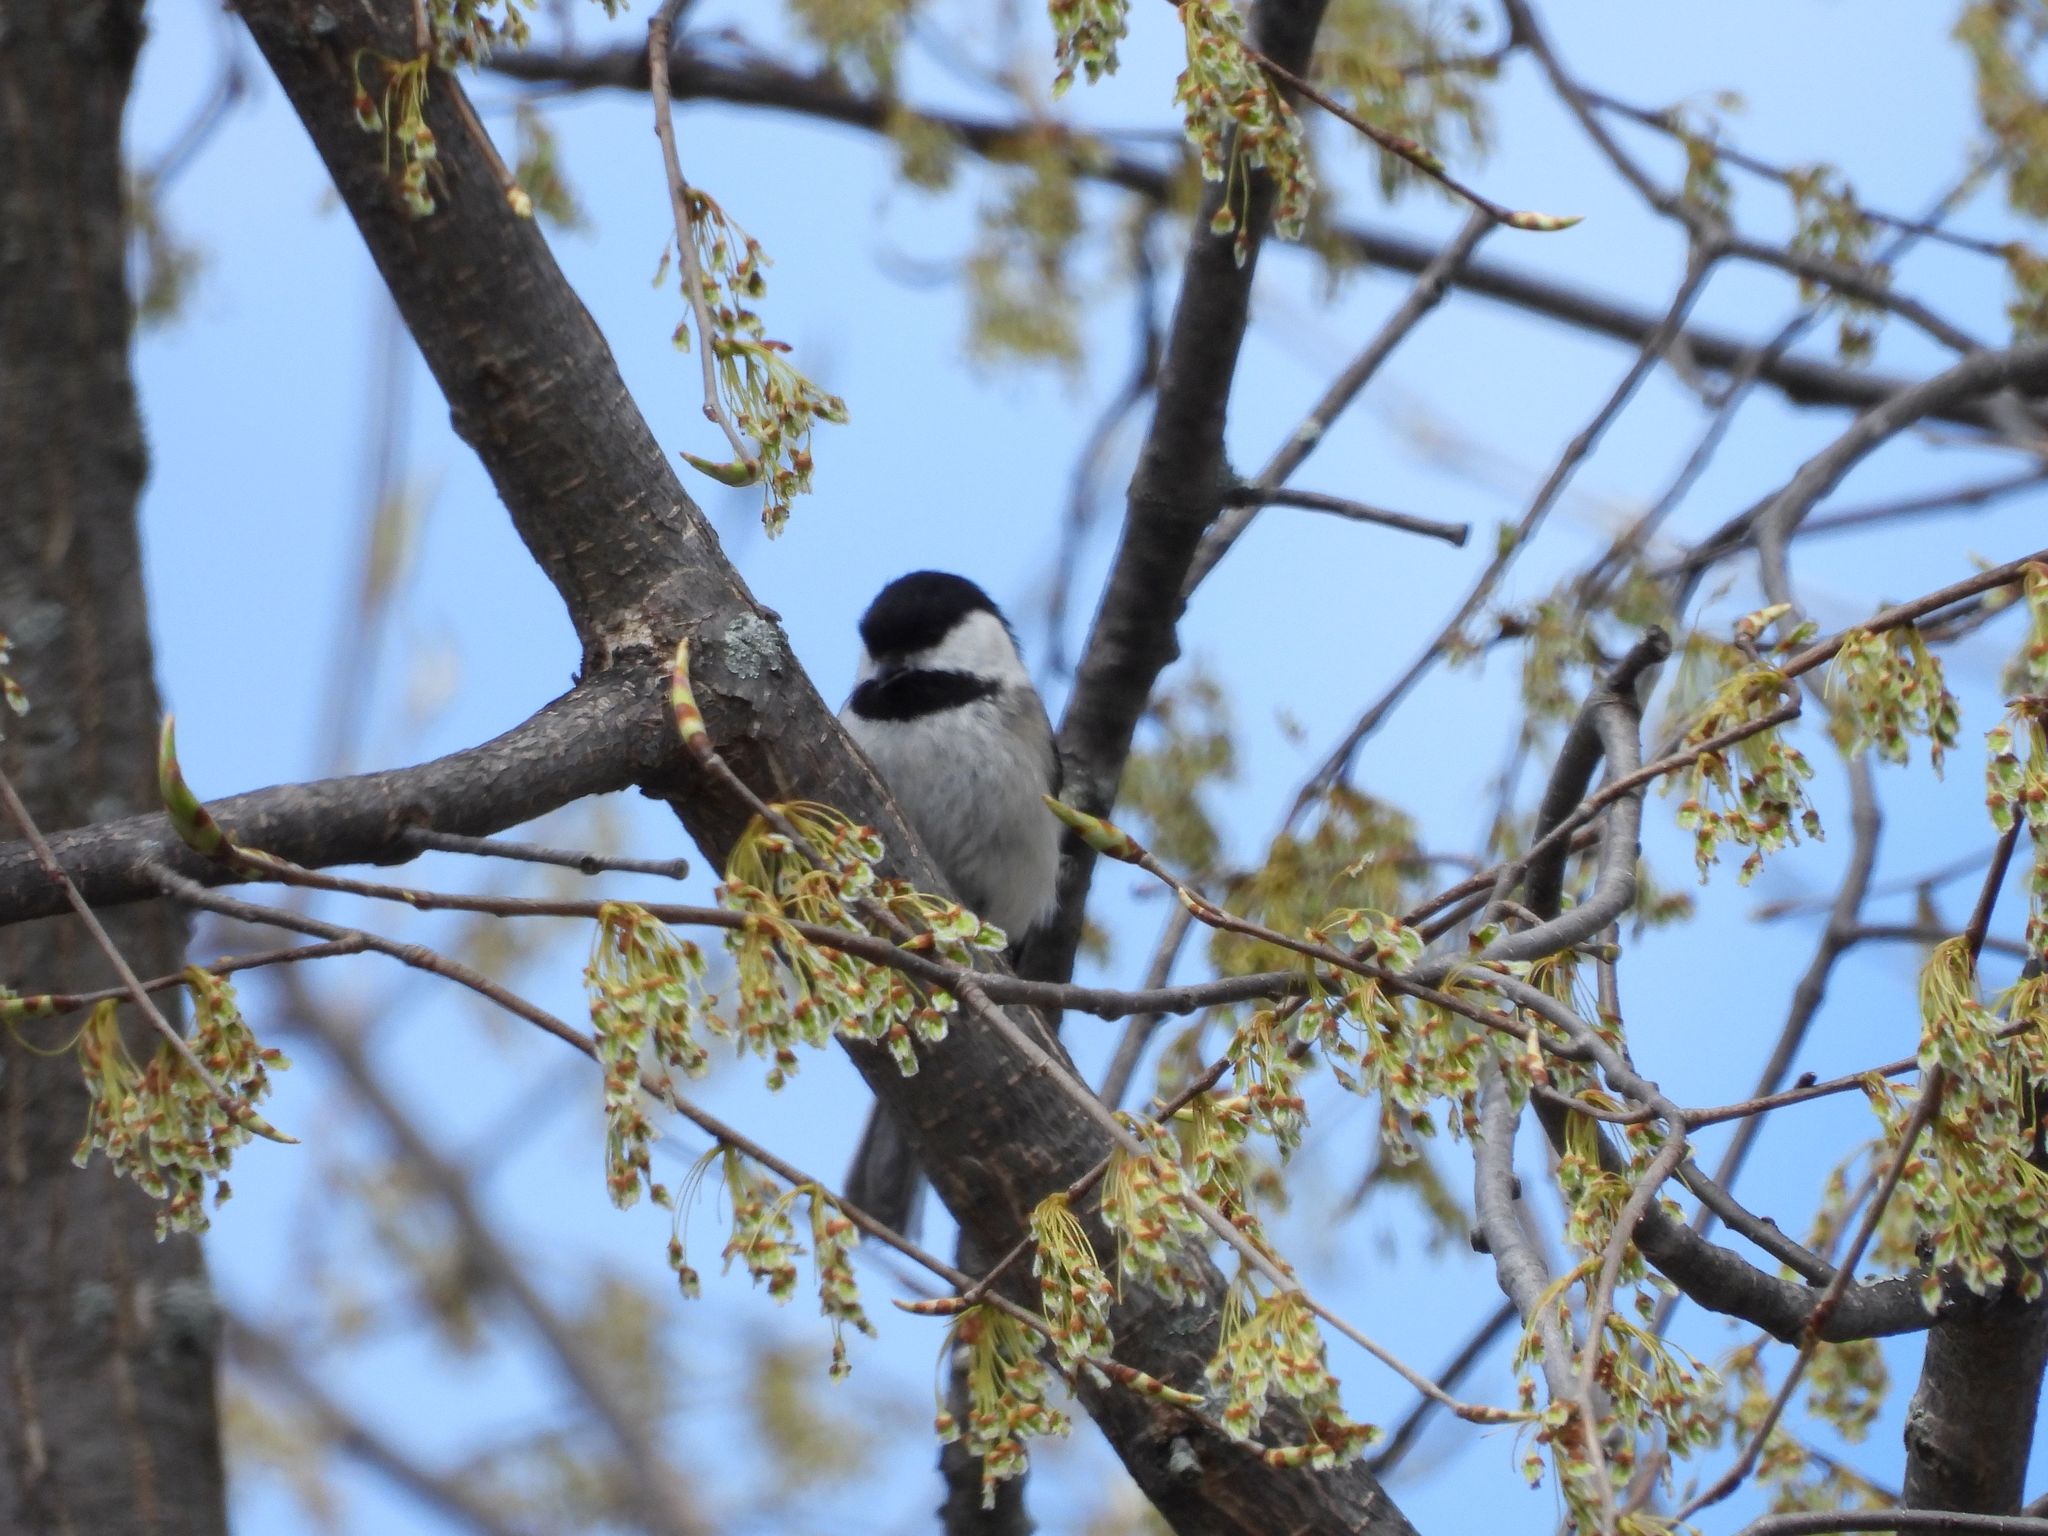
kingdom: Animalia
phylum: Chordata
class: Aves
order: Passeriformes
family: Paridae
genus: Poecile
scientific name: Poecile atricapillus
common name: Black-capped chickadee
